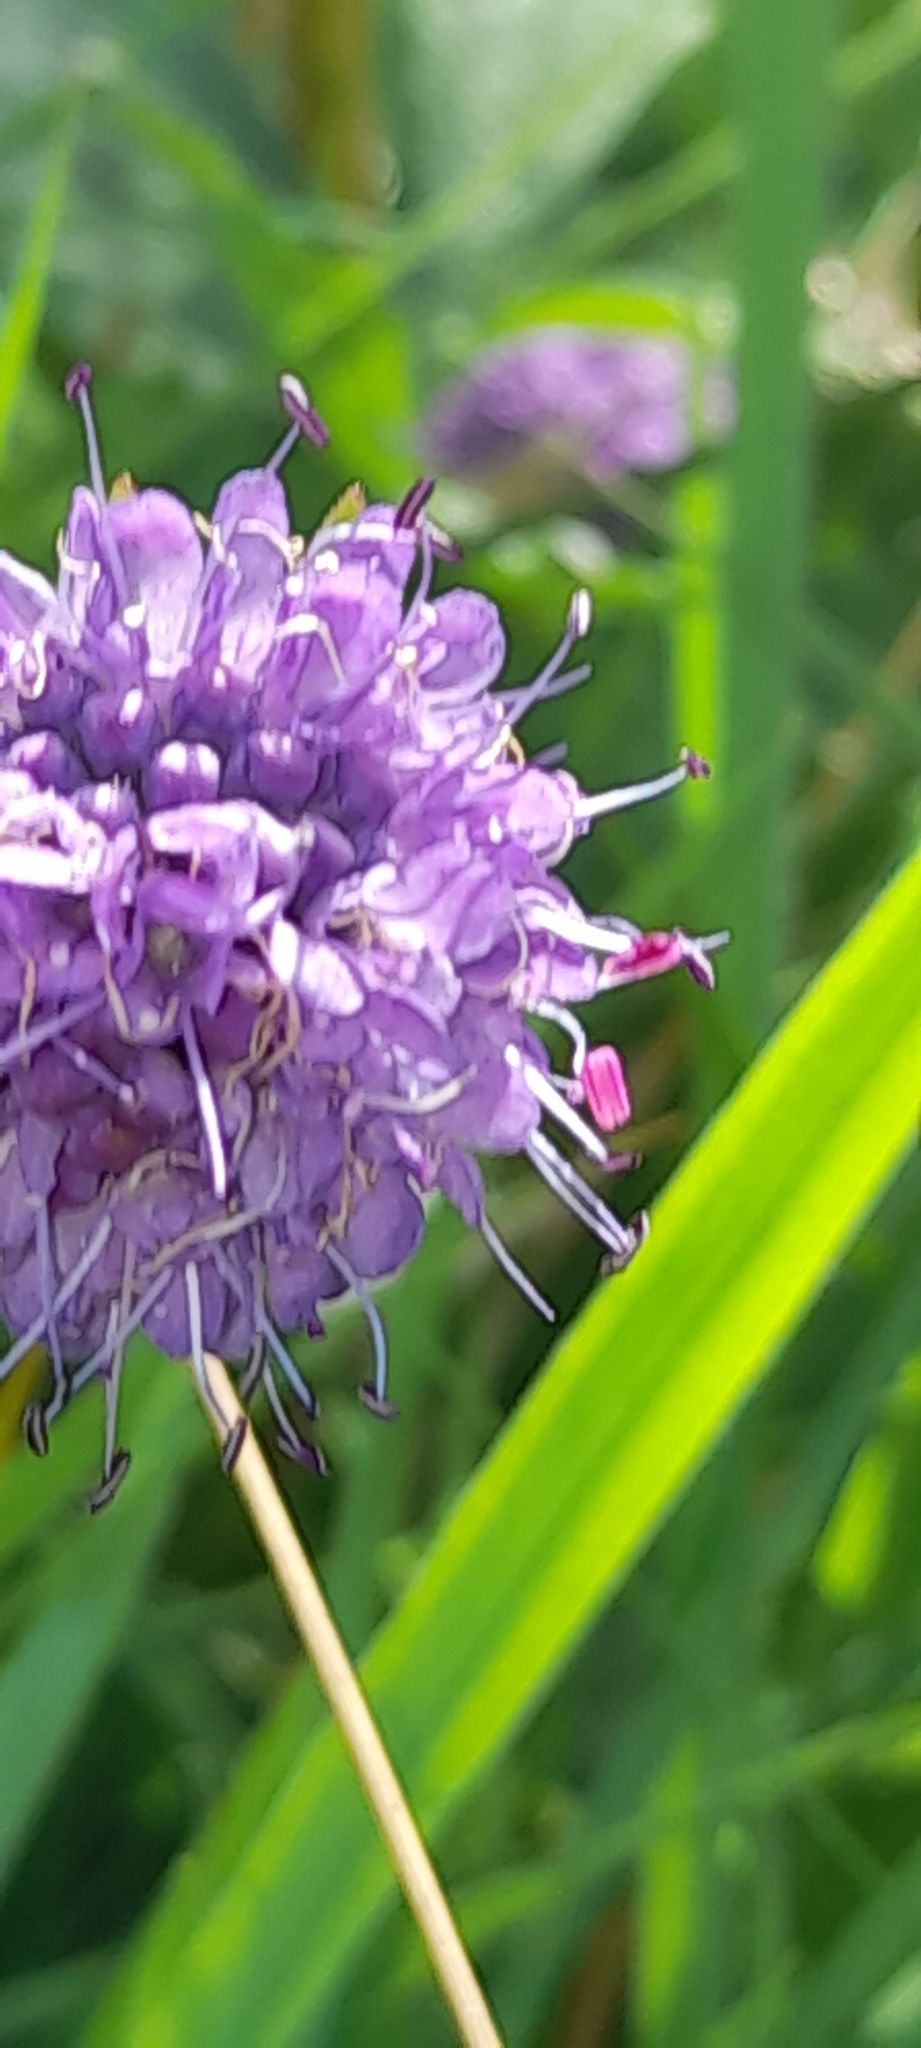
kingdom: Plantae
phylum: Tracheophyta
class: Magnoliopsida
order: Dipsacales
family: Caprifoliaceae
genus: Succisa
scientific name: Succisa pratensis
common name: Devil's-bit
